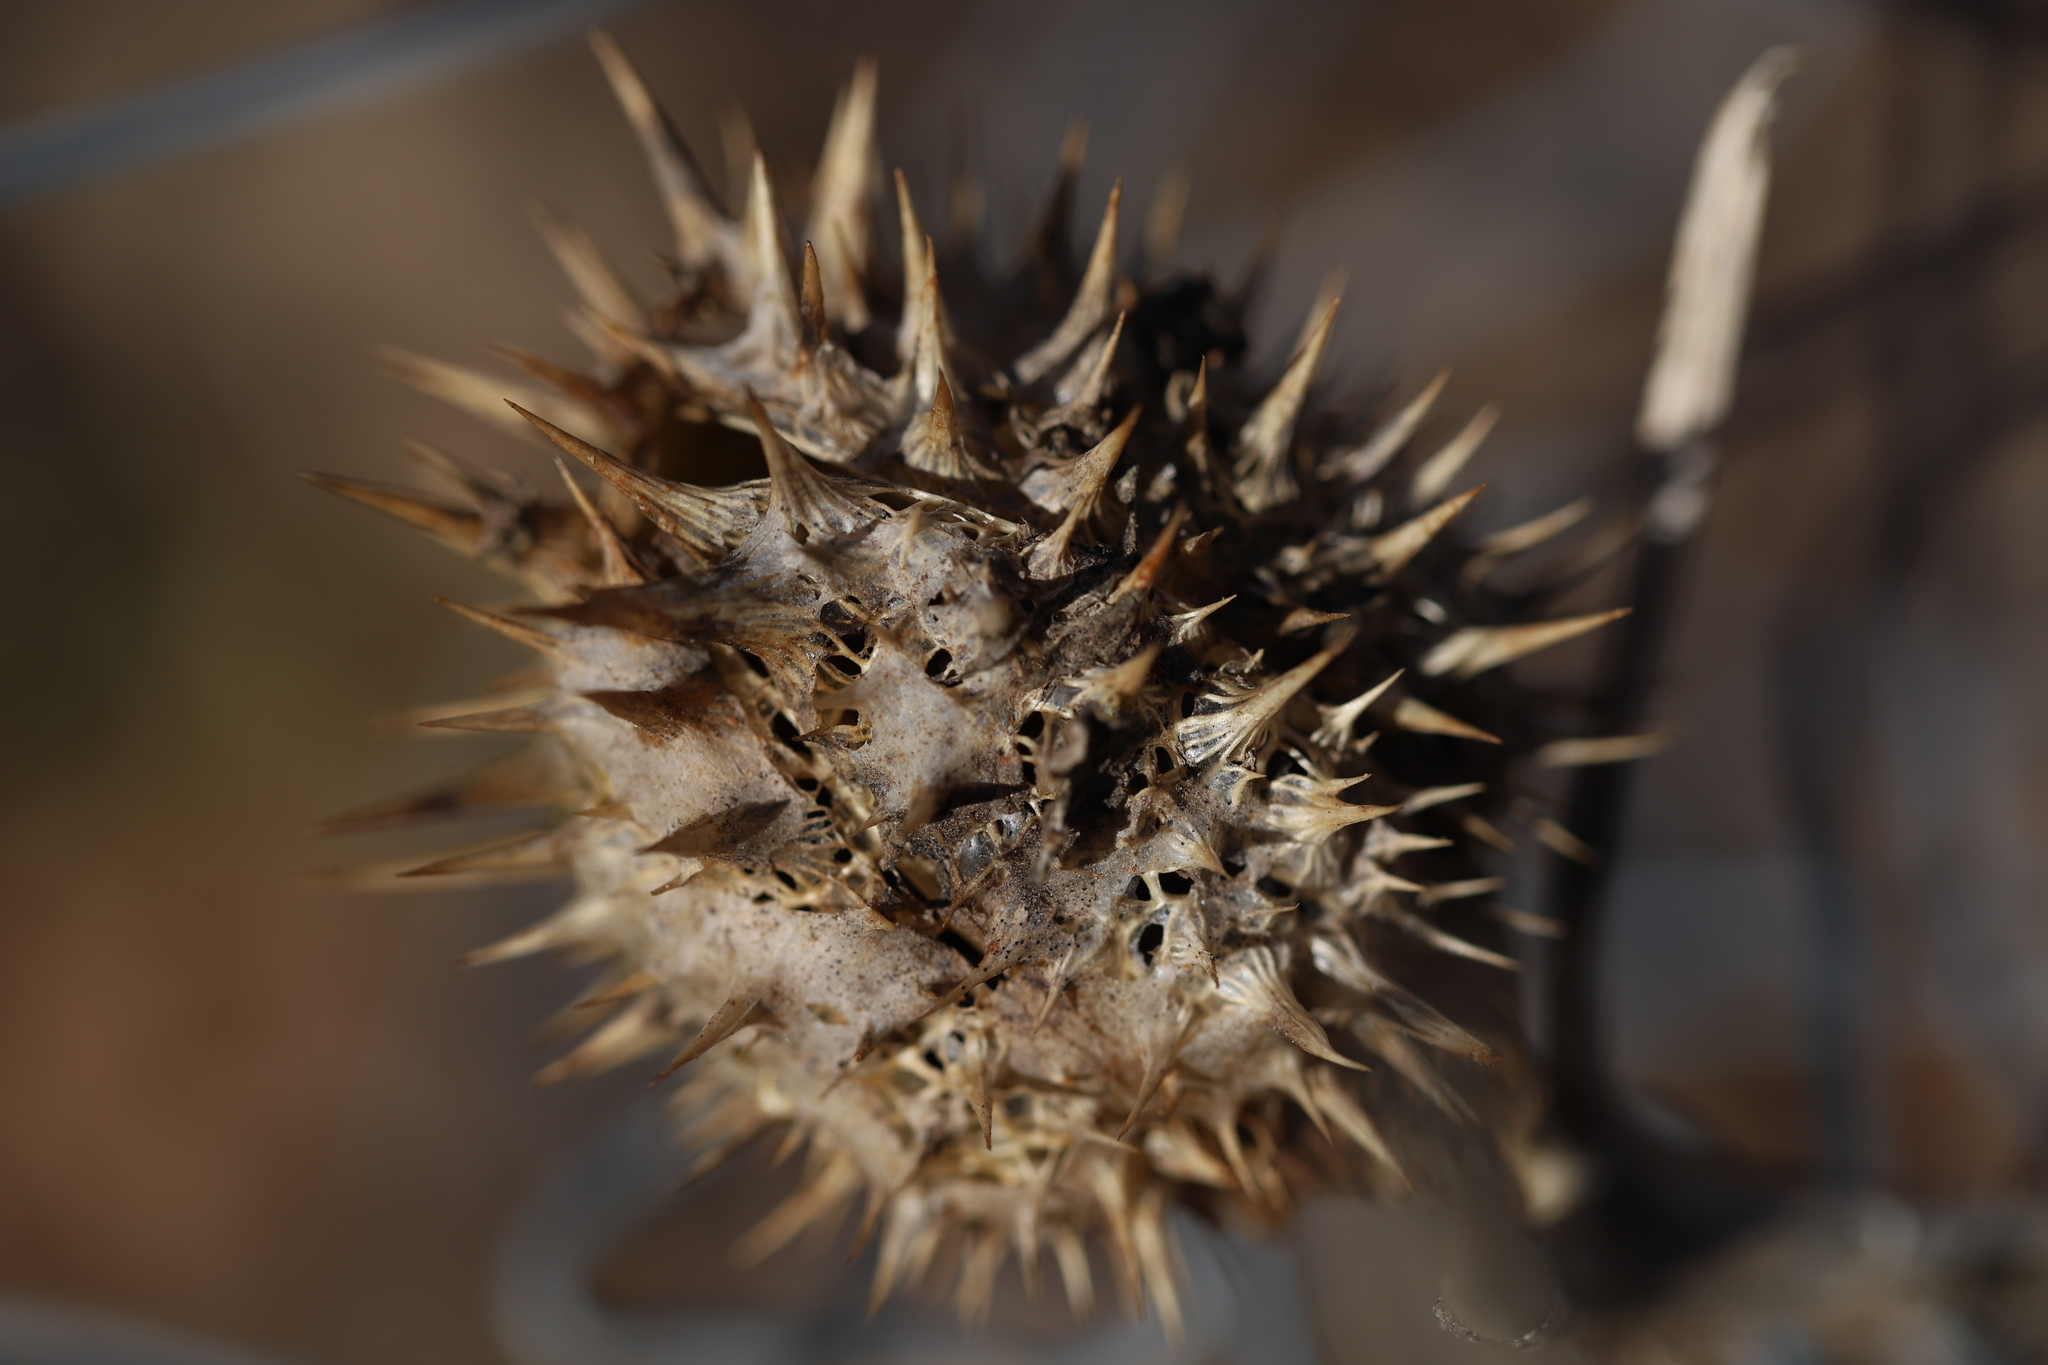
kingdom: Plantae
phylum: Tracheophyta
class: Magnoliopsida
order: Solanales
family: Solanaceae
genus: Datura
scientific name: Datura stramonium
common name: Thorn-apple
